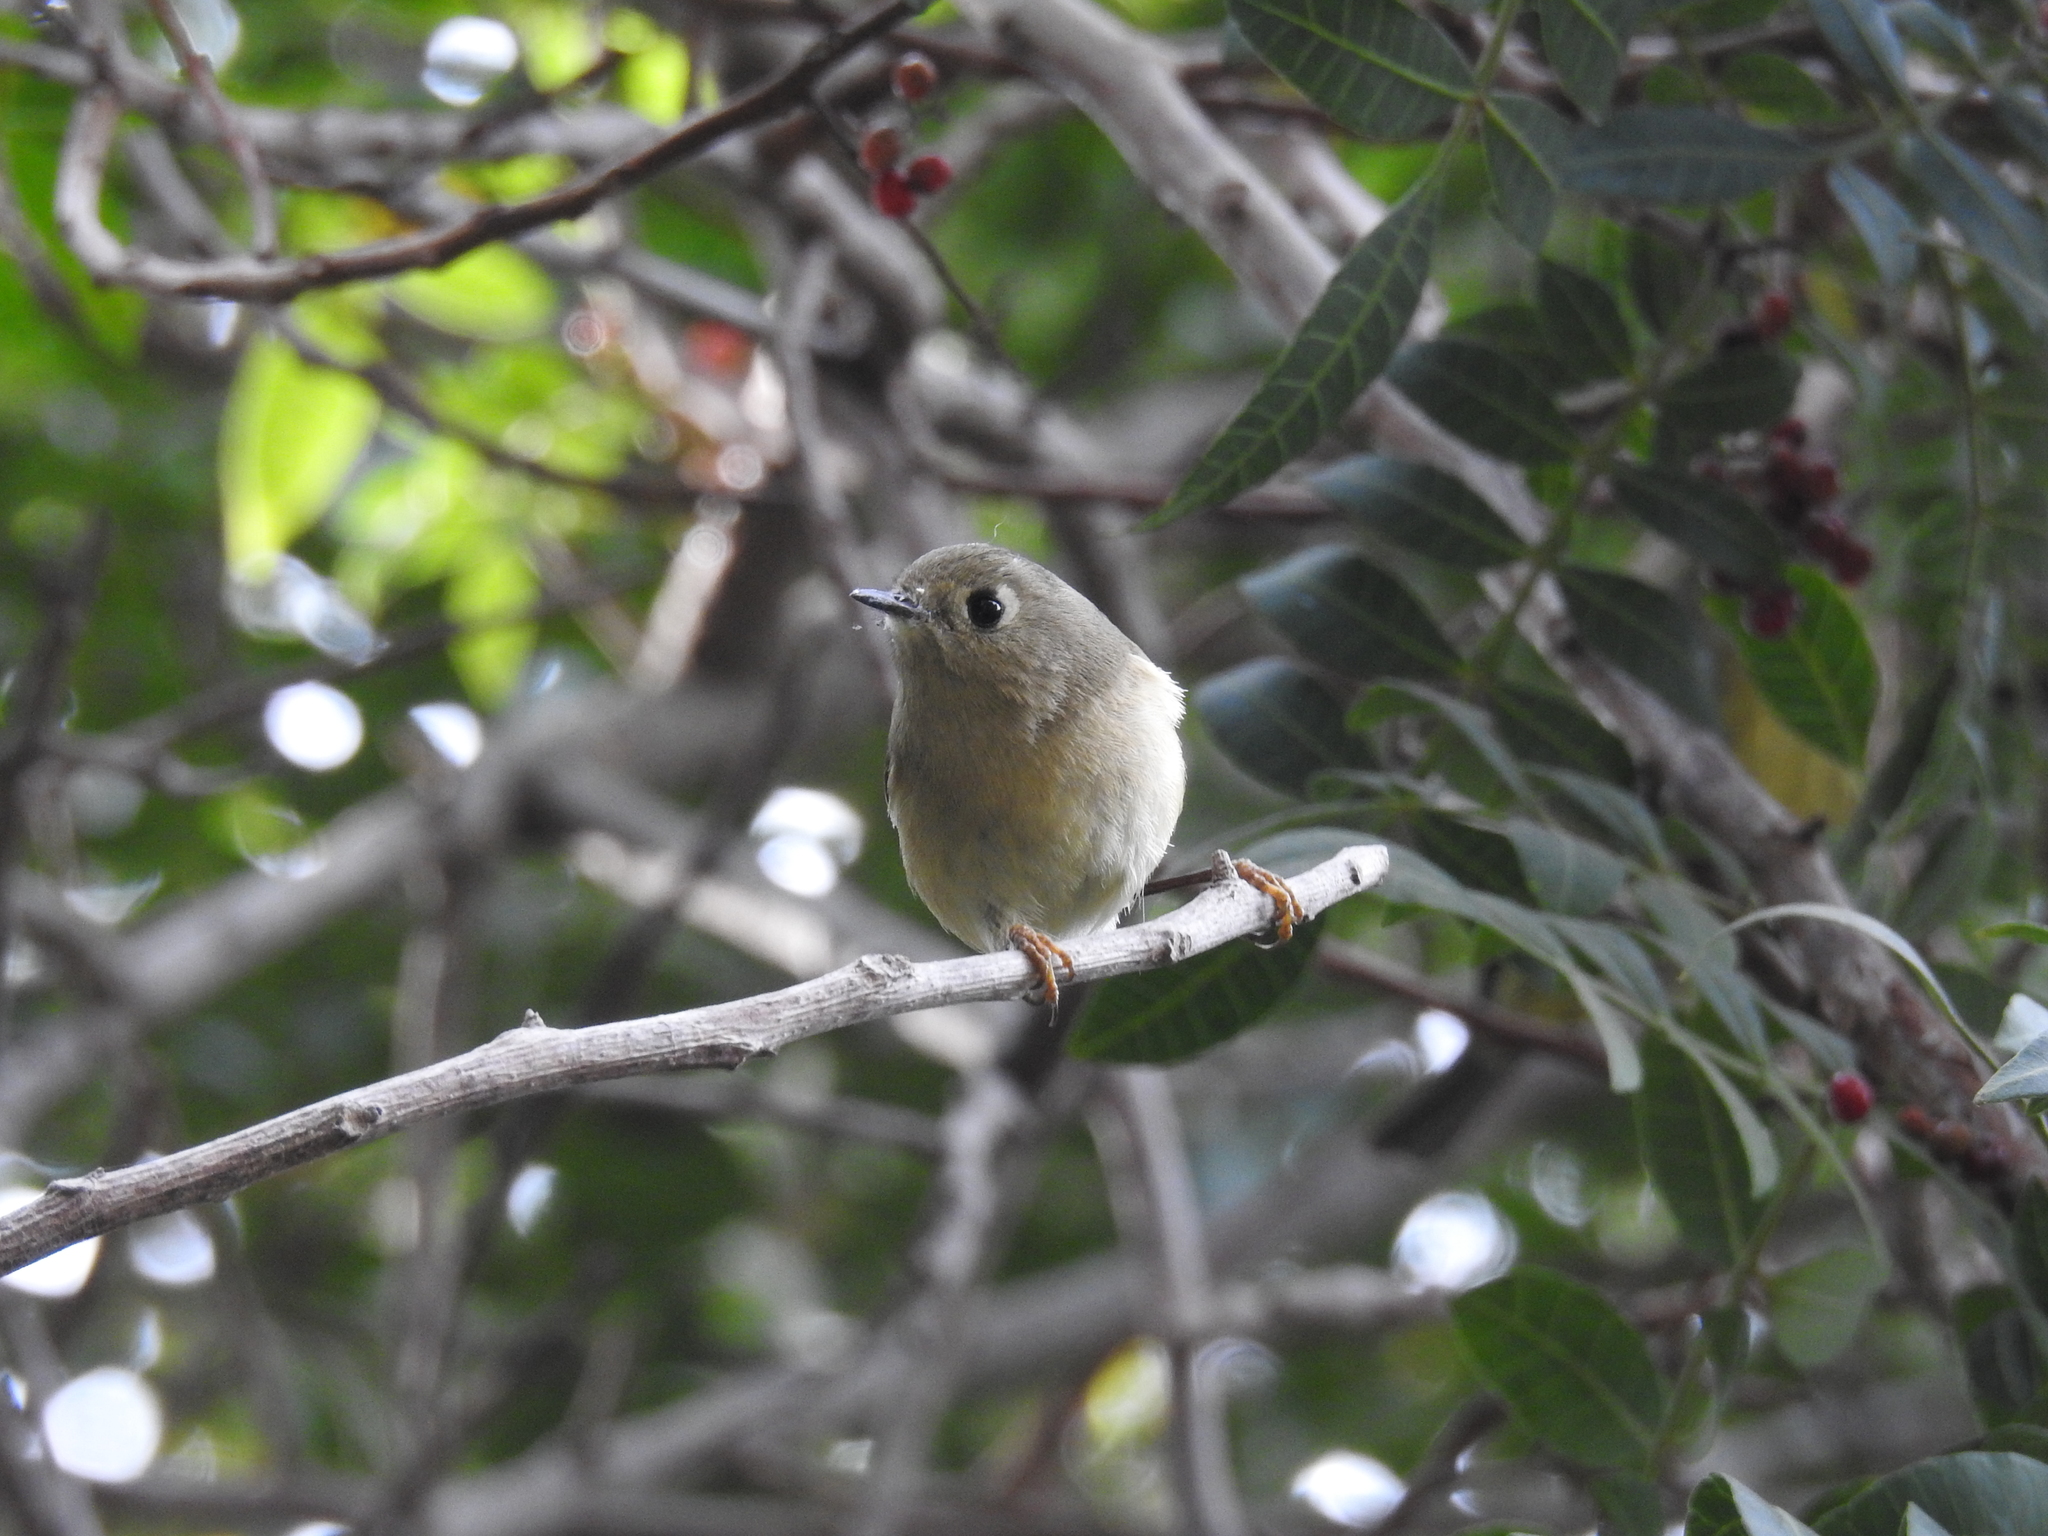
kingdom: Animalia
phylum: Chordata
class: Aves
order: Passeriformes
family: Regulidae
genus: Regulus
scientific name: Regulus calendula
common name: Ruby-crowned kinglet
